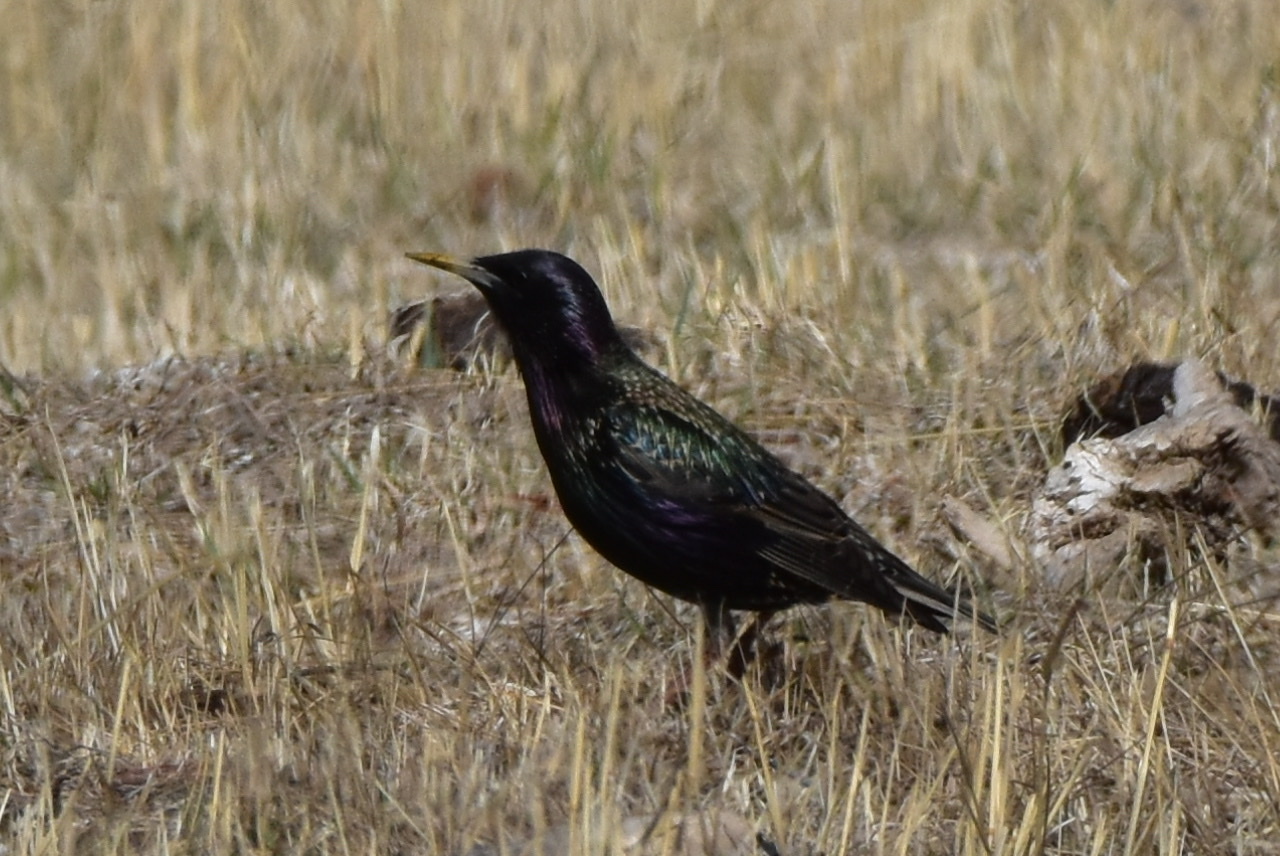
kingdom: Animalia
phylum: Chordata
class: Aves
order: Passeriformes
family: Sturnidae
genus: Sturnus
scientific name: Sturnus vulgaris
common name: Common starling
